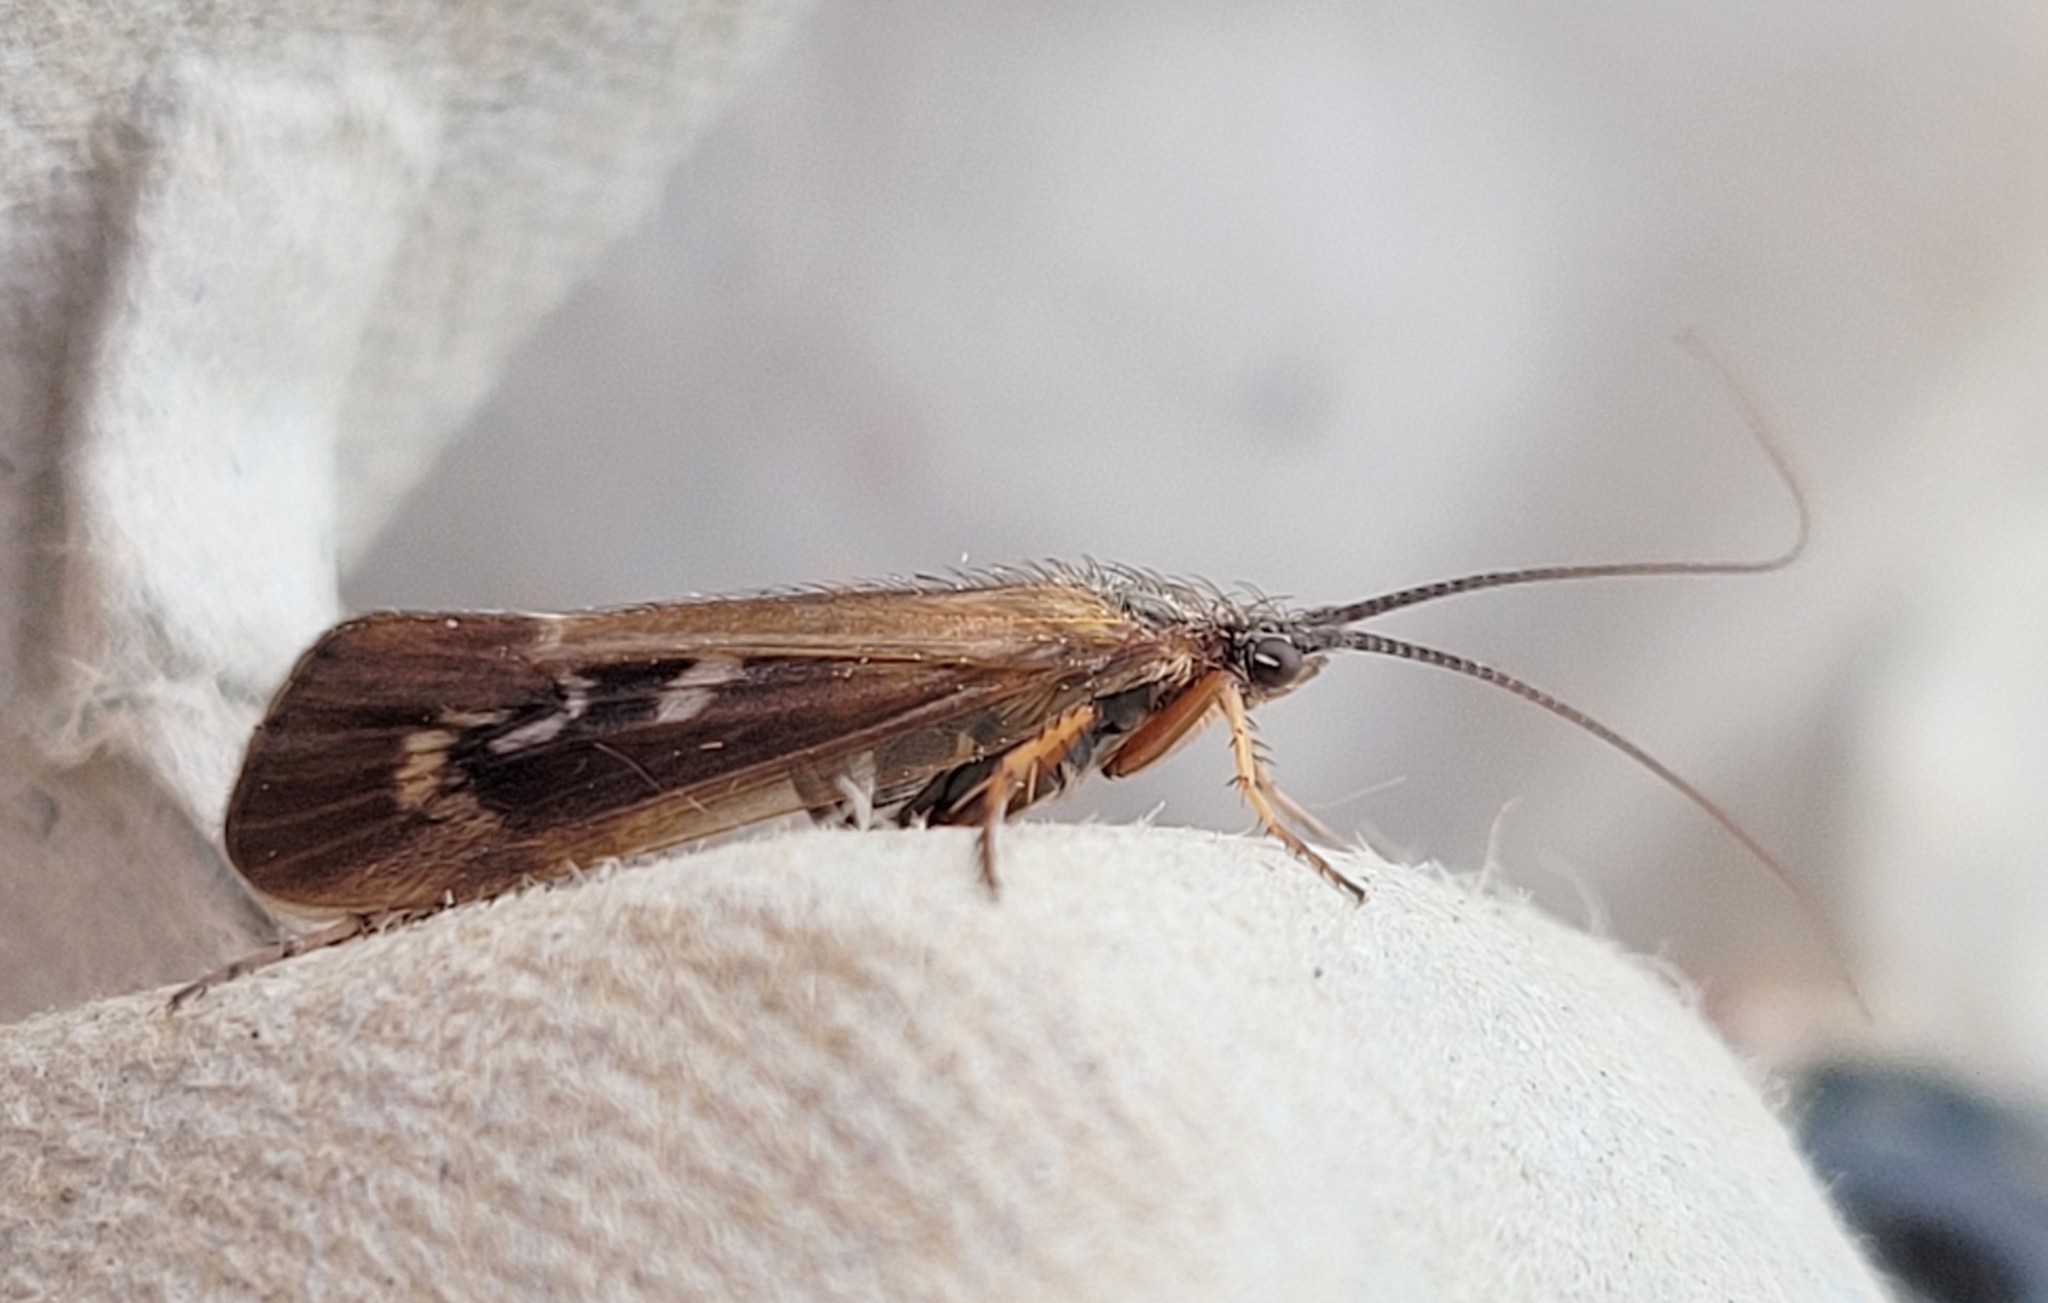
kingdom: Animalia
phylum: Arthropoda
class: Insecta
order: Trichoptera
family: Limnephilidae
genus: Limnephilus
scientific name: Limnephilus auricula
